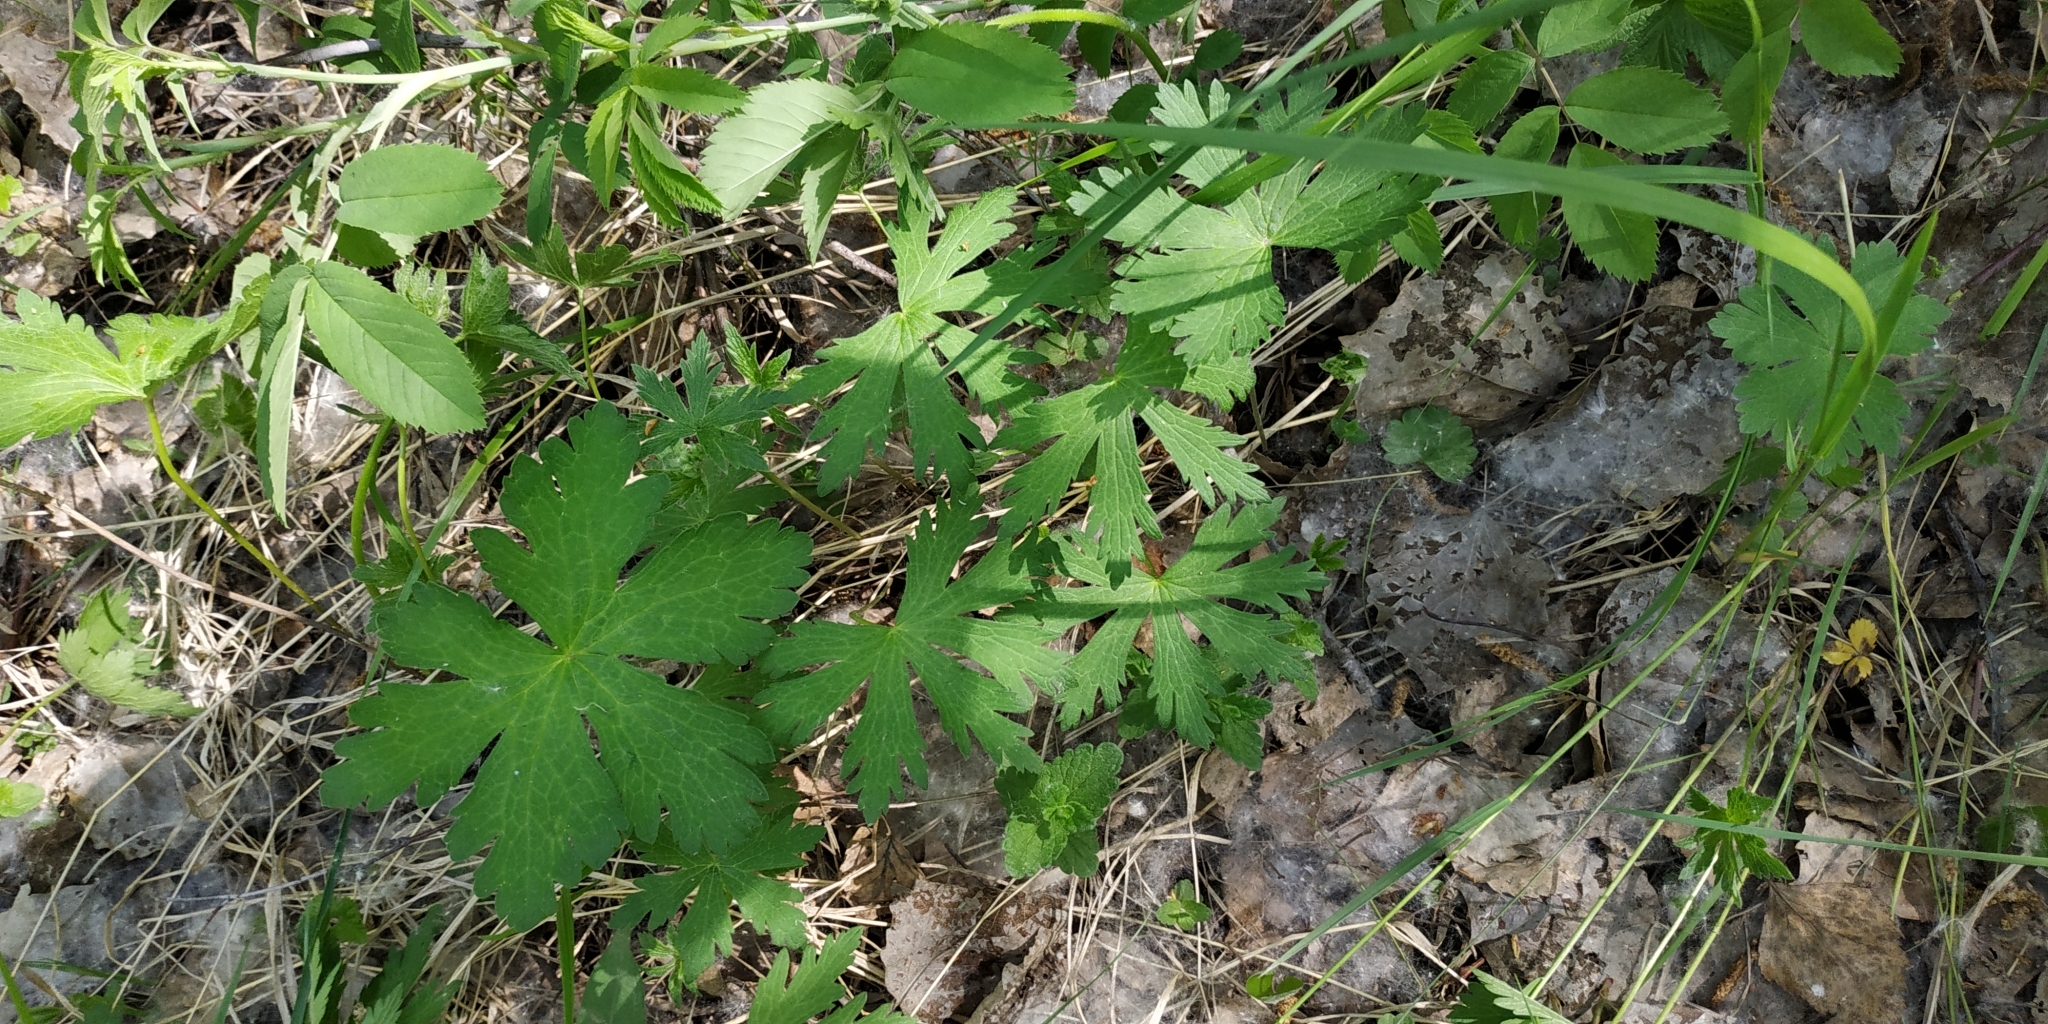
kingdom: Plantae
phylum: Tracheophyta
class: Magnoliopsida
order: Geraniales
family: Geraniaceae
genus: Geranium
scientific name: Geranium sylvaticum
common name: Wood crane's-bill
